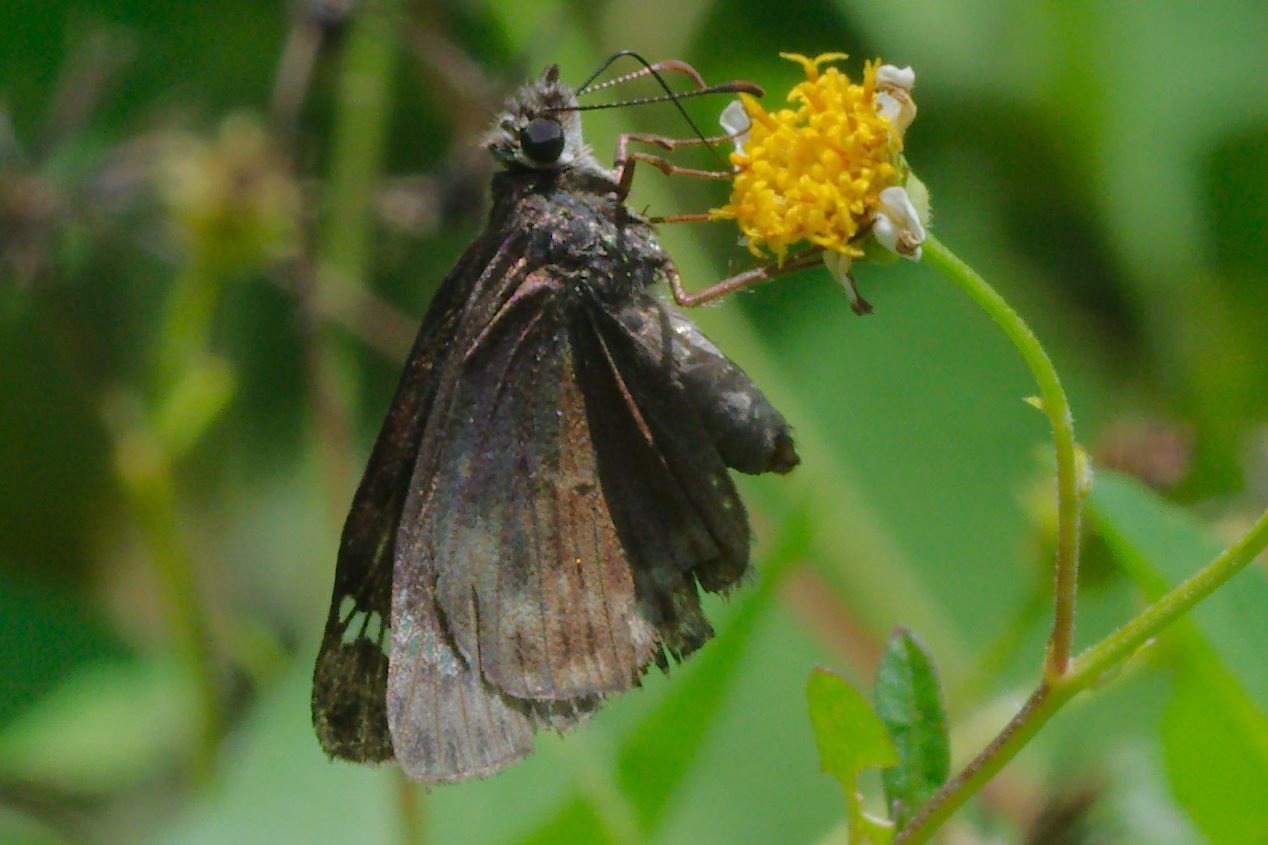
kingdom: Animalia
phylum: Arthropoda
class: Insecta
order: Lepidoptera
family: Hesperiidae
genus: Erynnis
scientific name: Erynnis horatius
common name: Horace's duskywing
